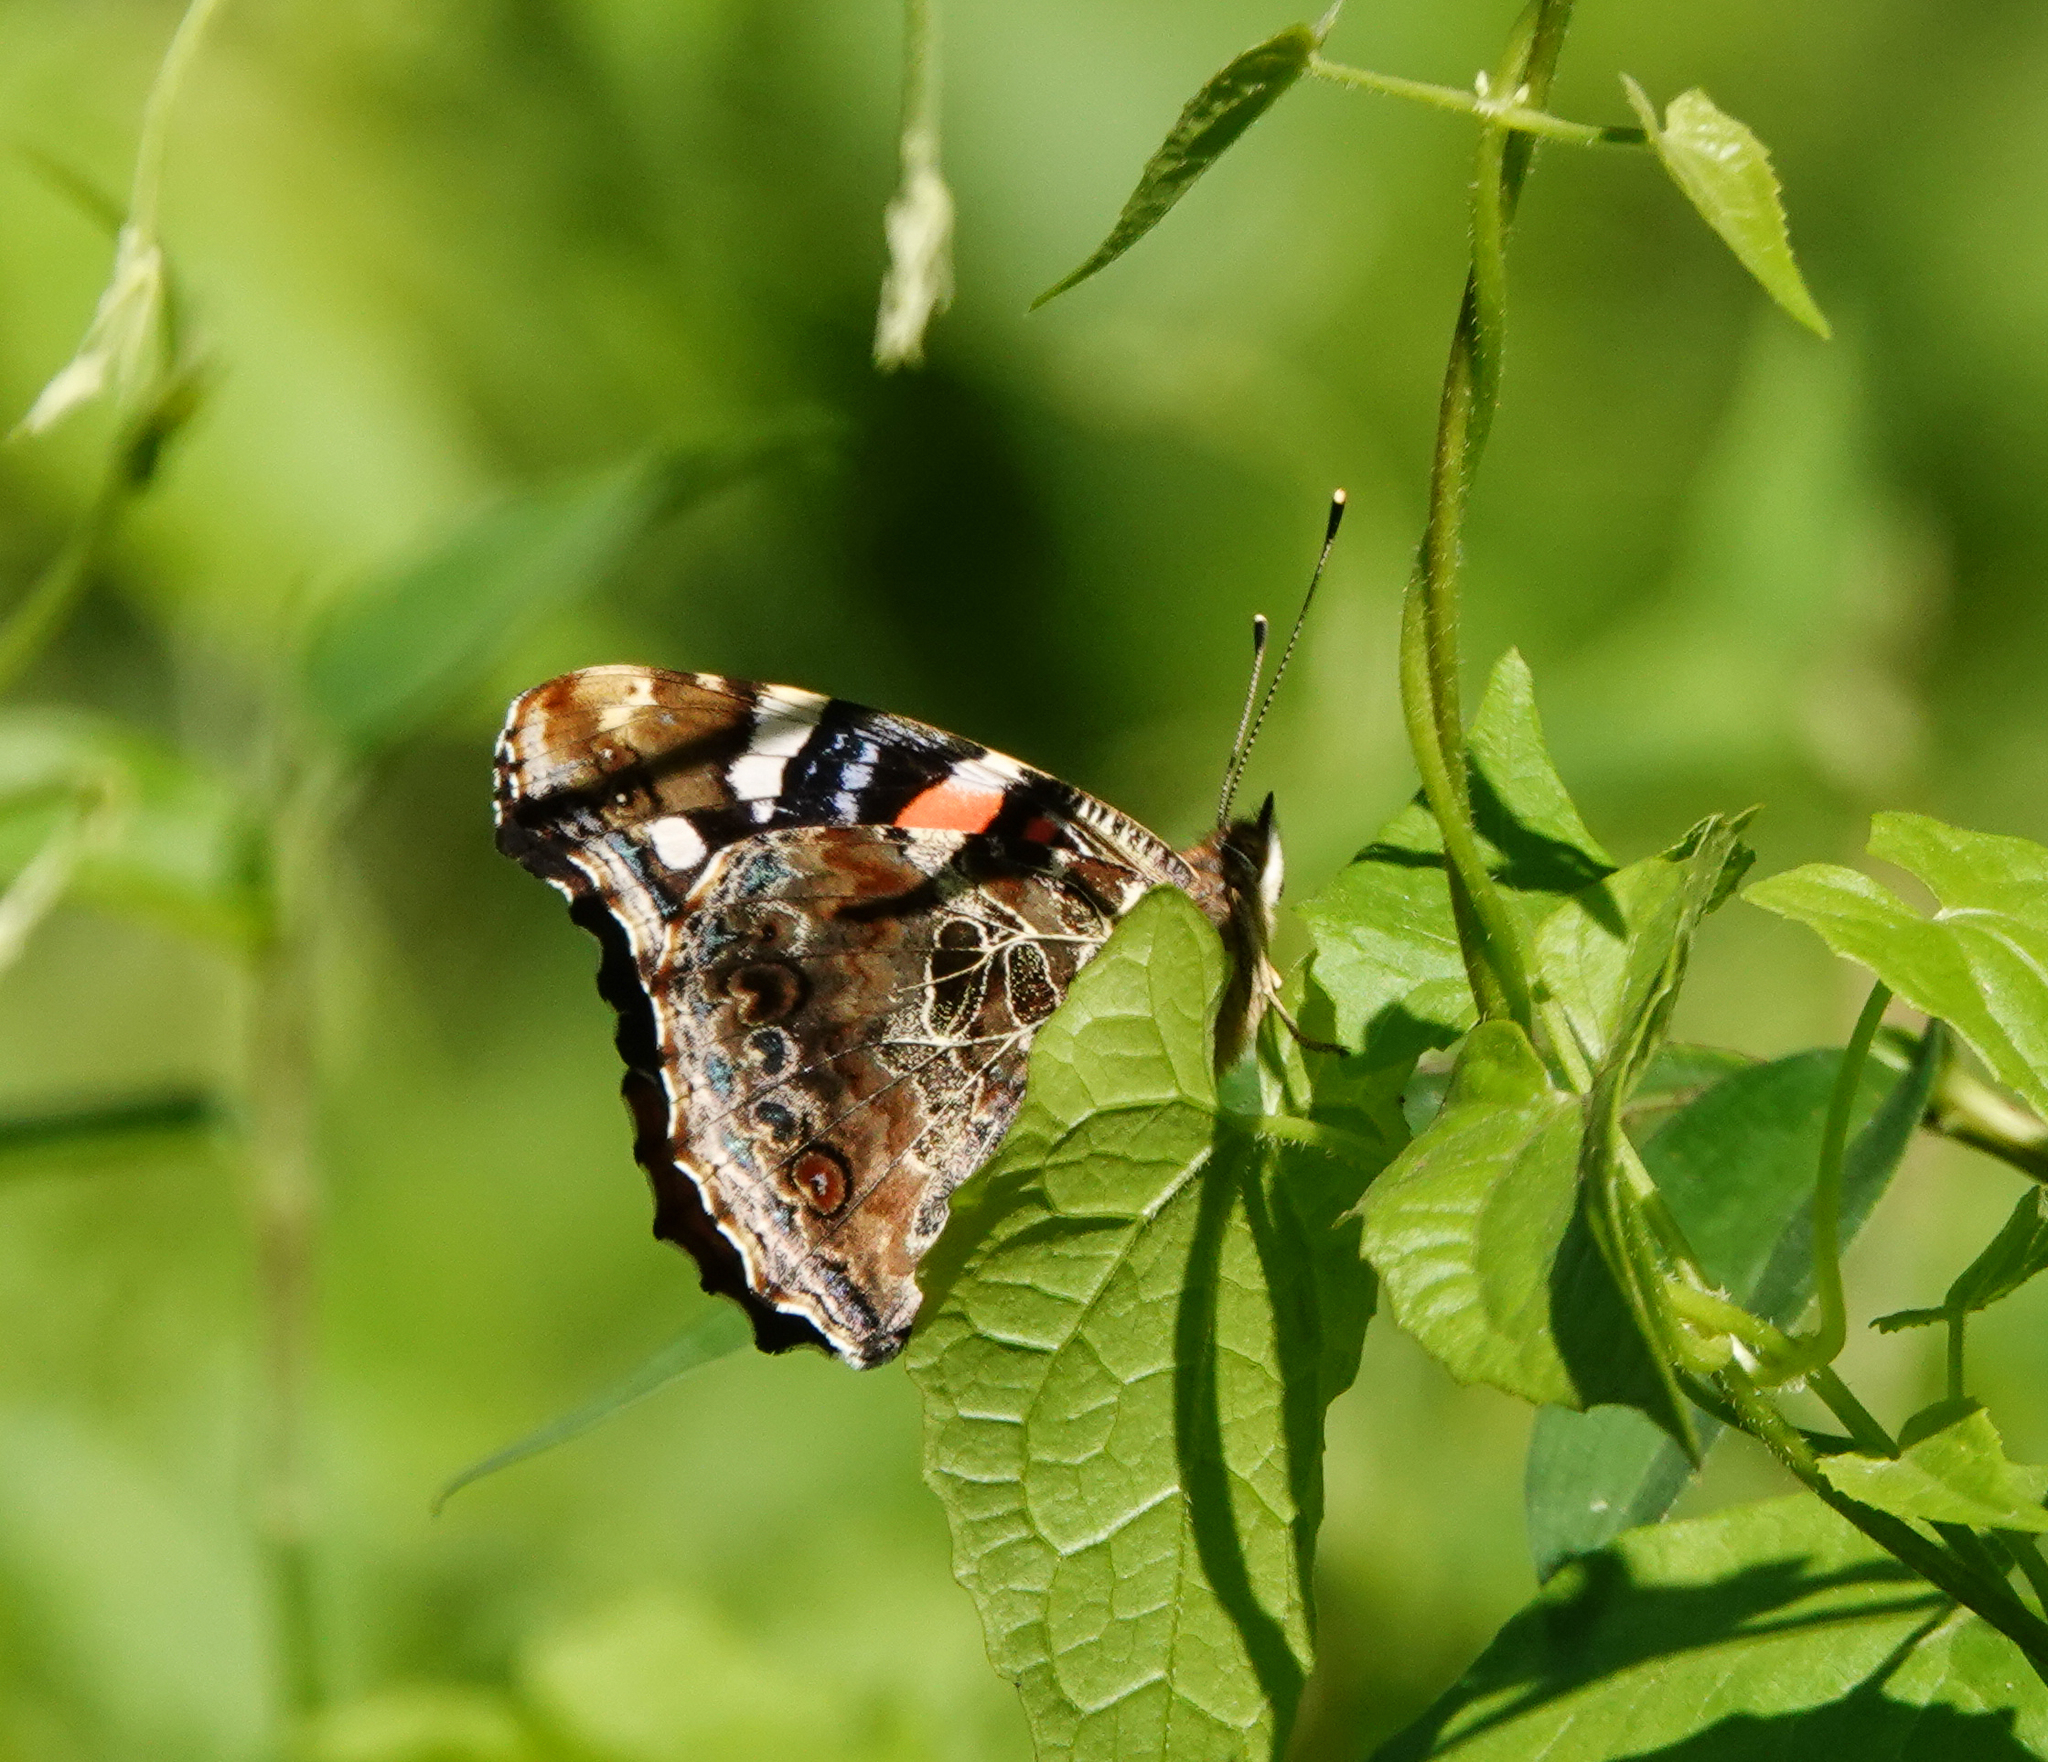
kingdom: Animalia
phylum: Arthropoda
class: Insecta
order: Lepidoptera
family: Nymphalidae
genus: Vanessa
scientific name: Vanessa indica
